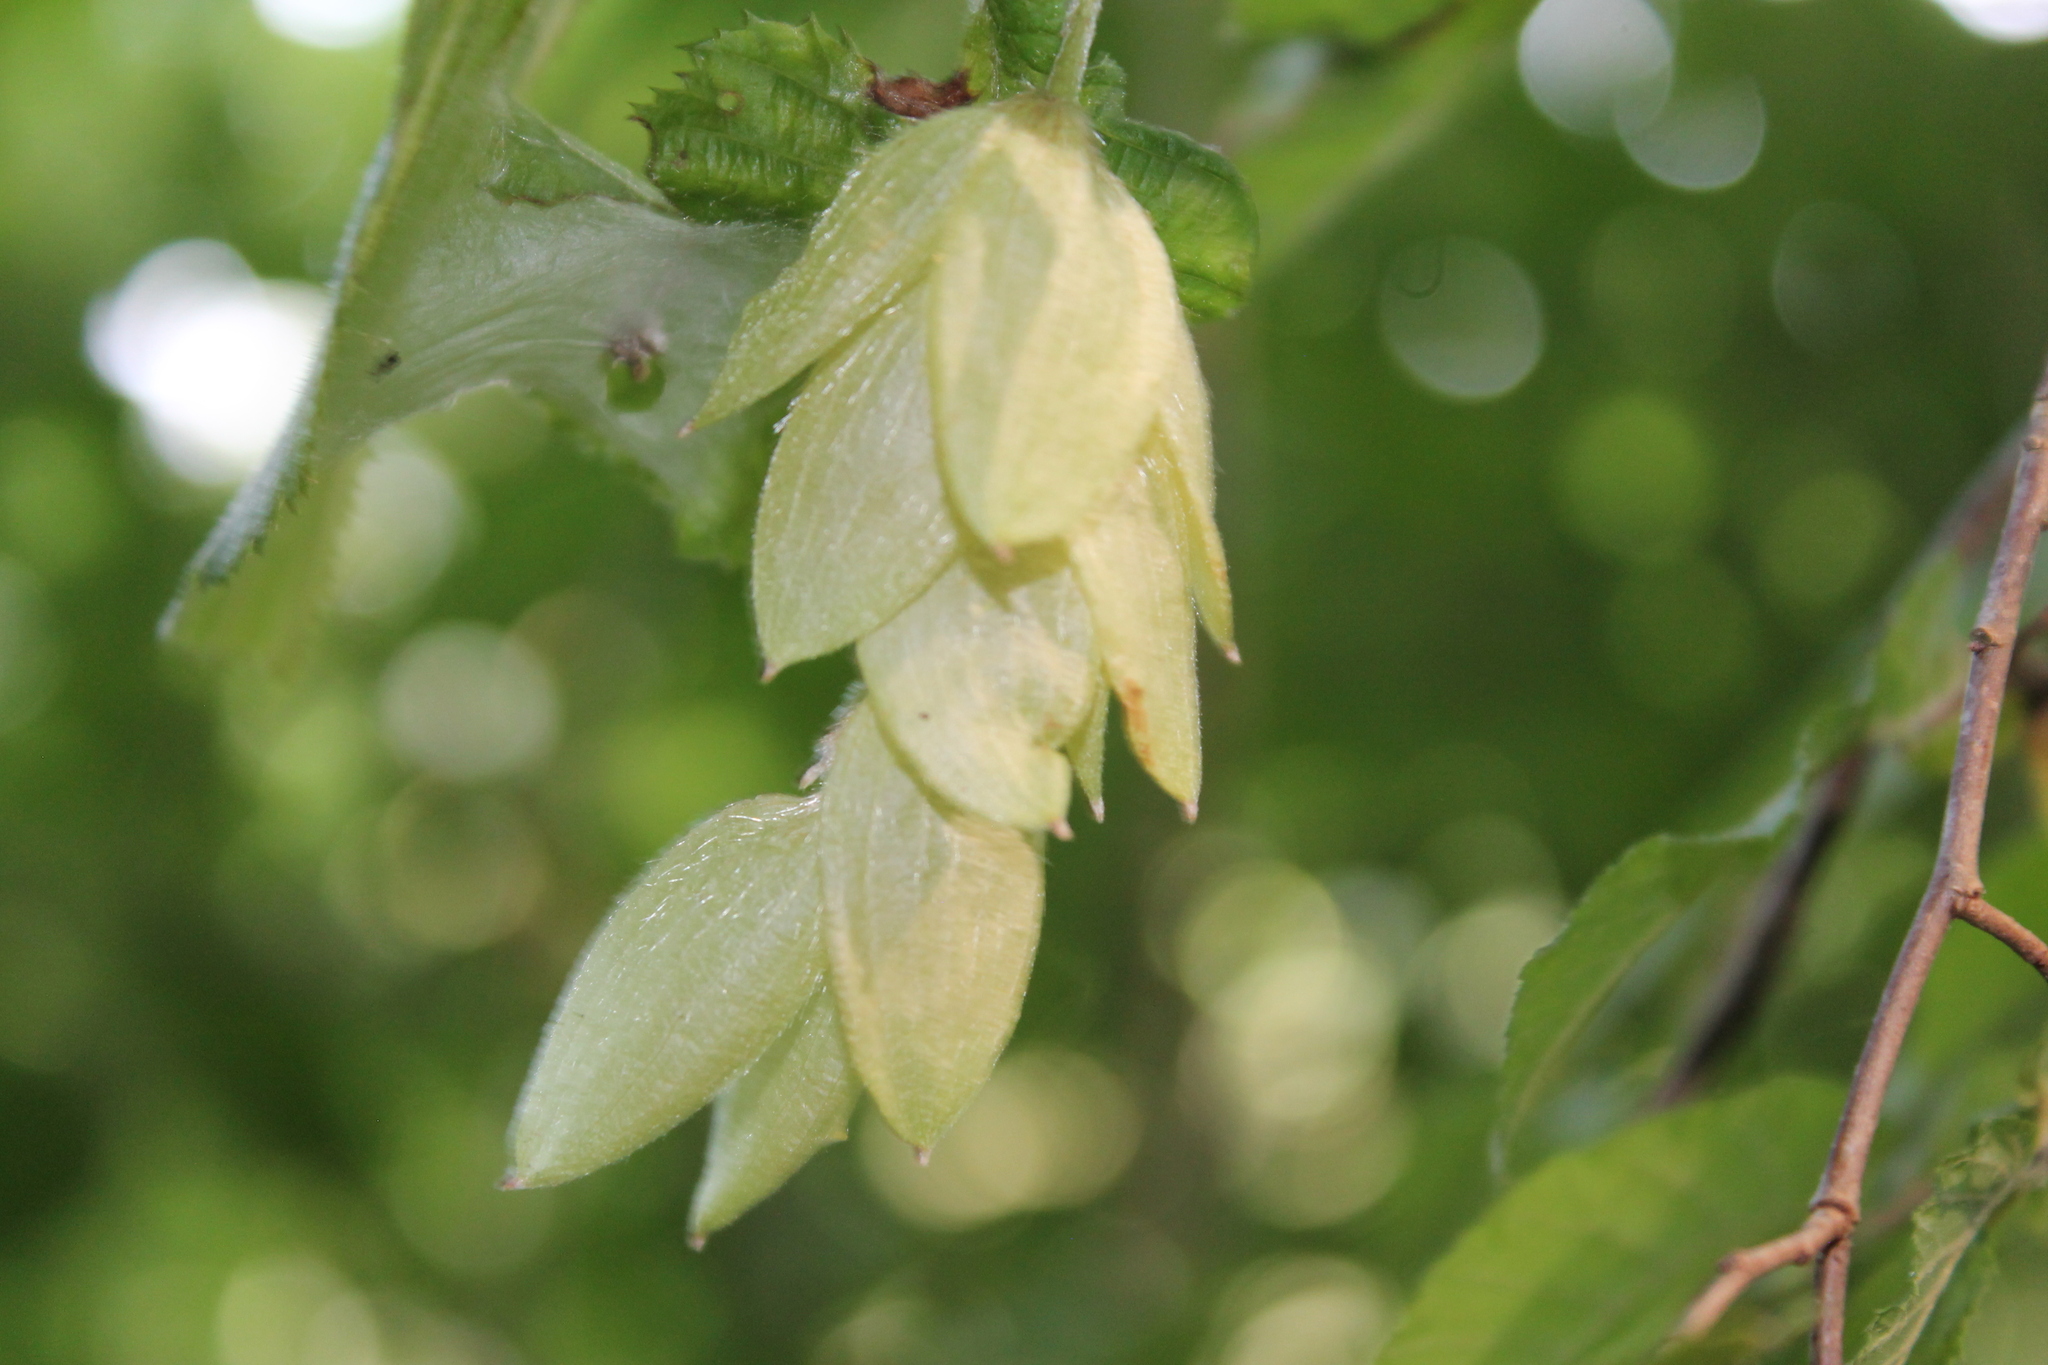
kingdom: Plantae
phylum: Tracheophyta
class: Magnoliopsida
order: Fagales
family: Betulaceae
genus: Ostrya
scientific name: Ostrya virginiana
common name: Ironwood
